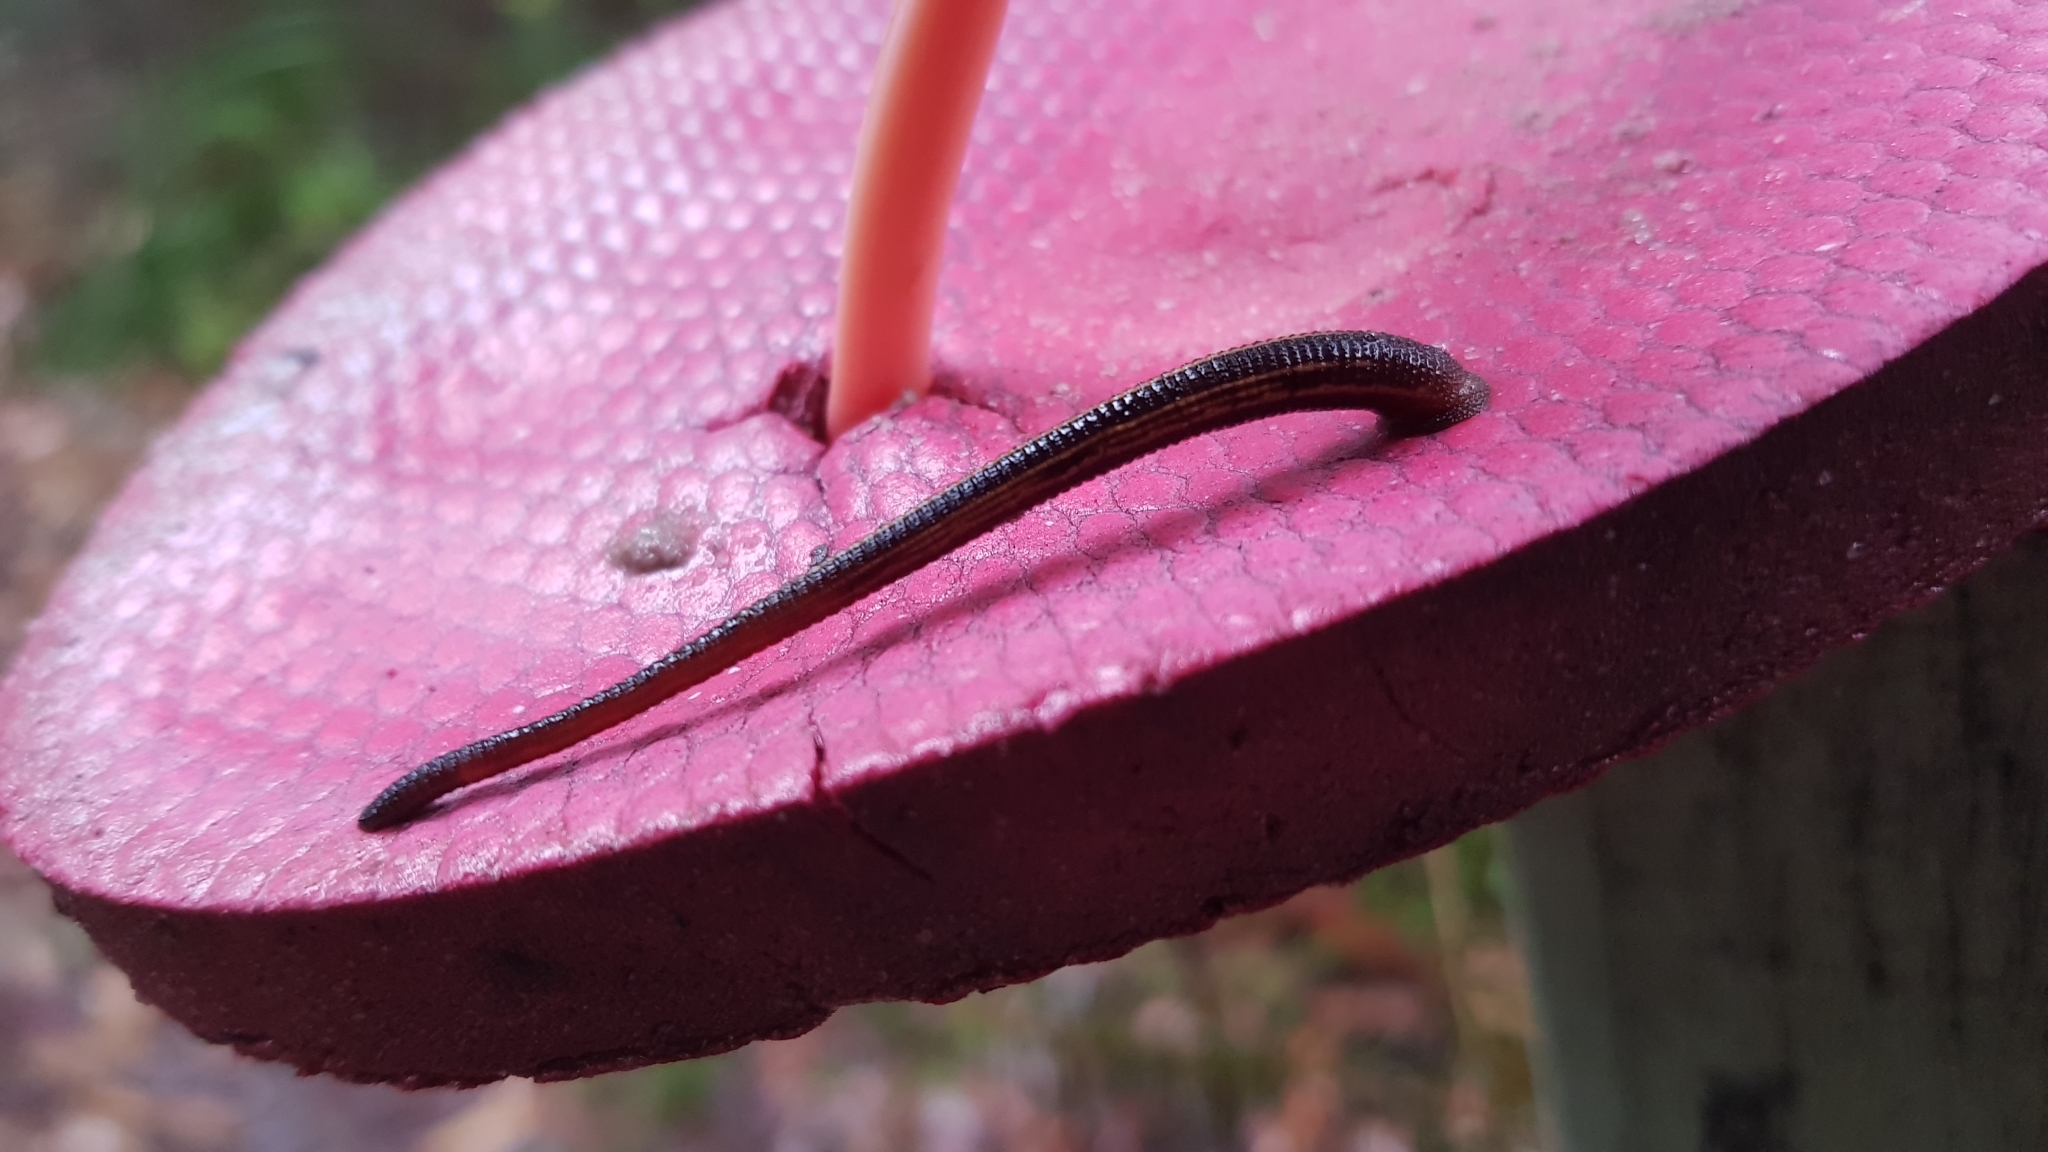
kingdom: Animalia
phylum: Annelida
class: Clitellata
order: Arhynchobdellida
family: Haemadipsidae
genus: Chtonobdella
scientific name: Chtonobdella limbata
